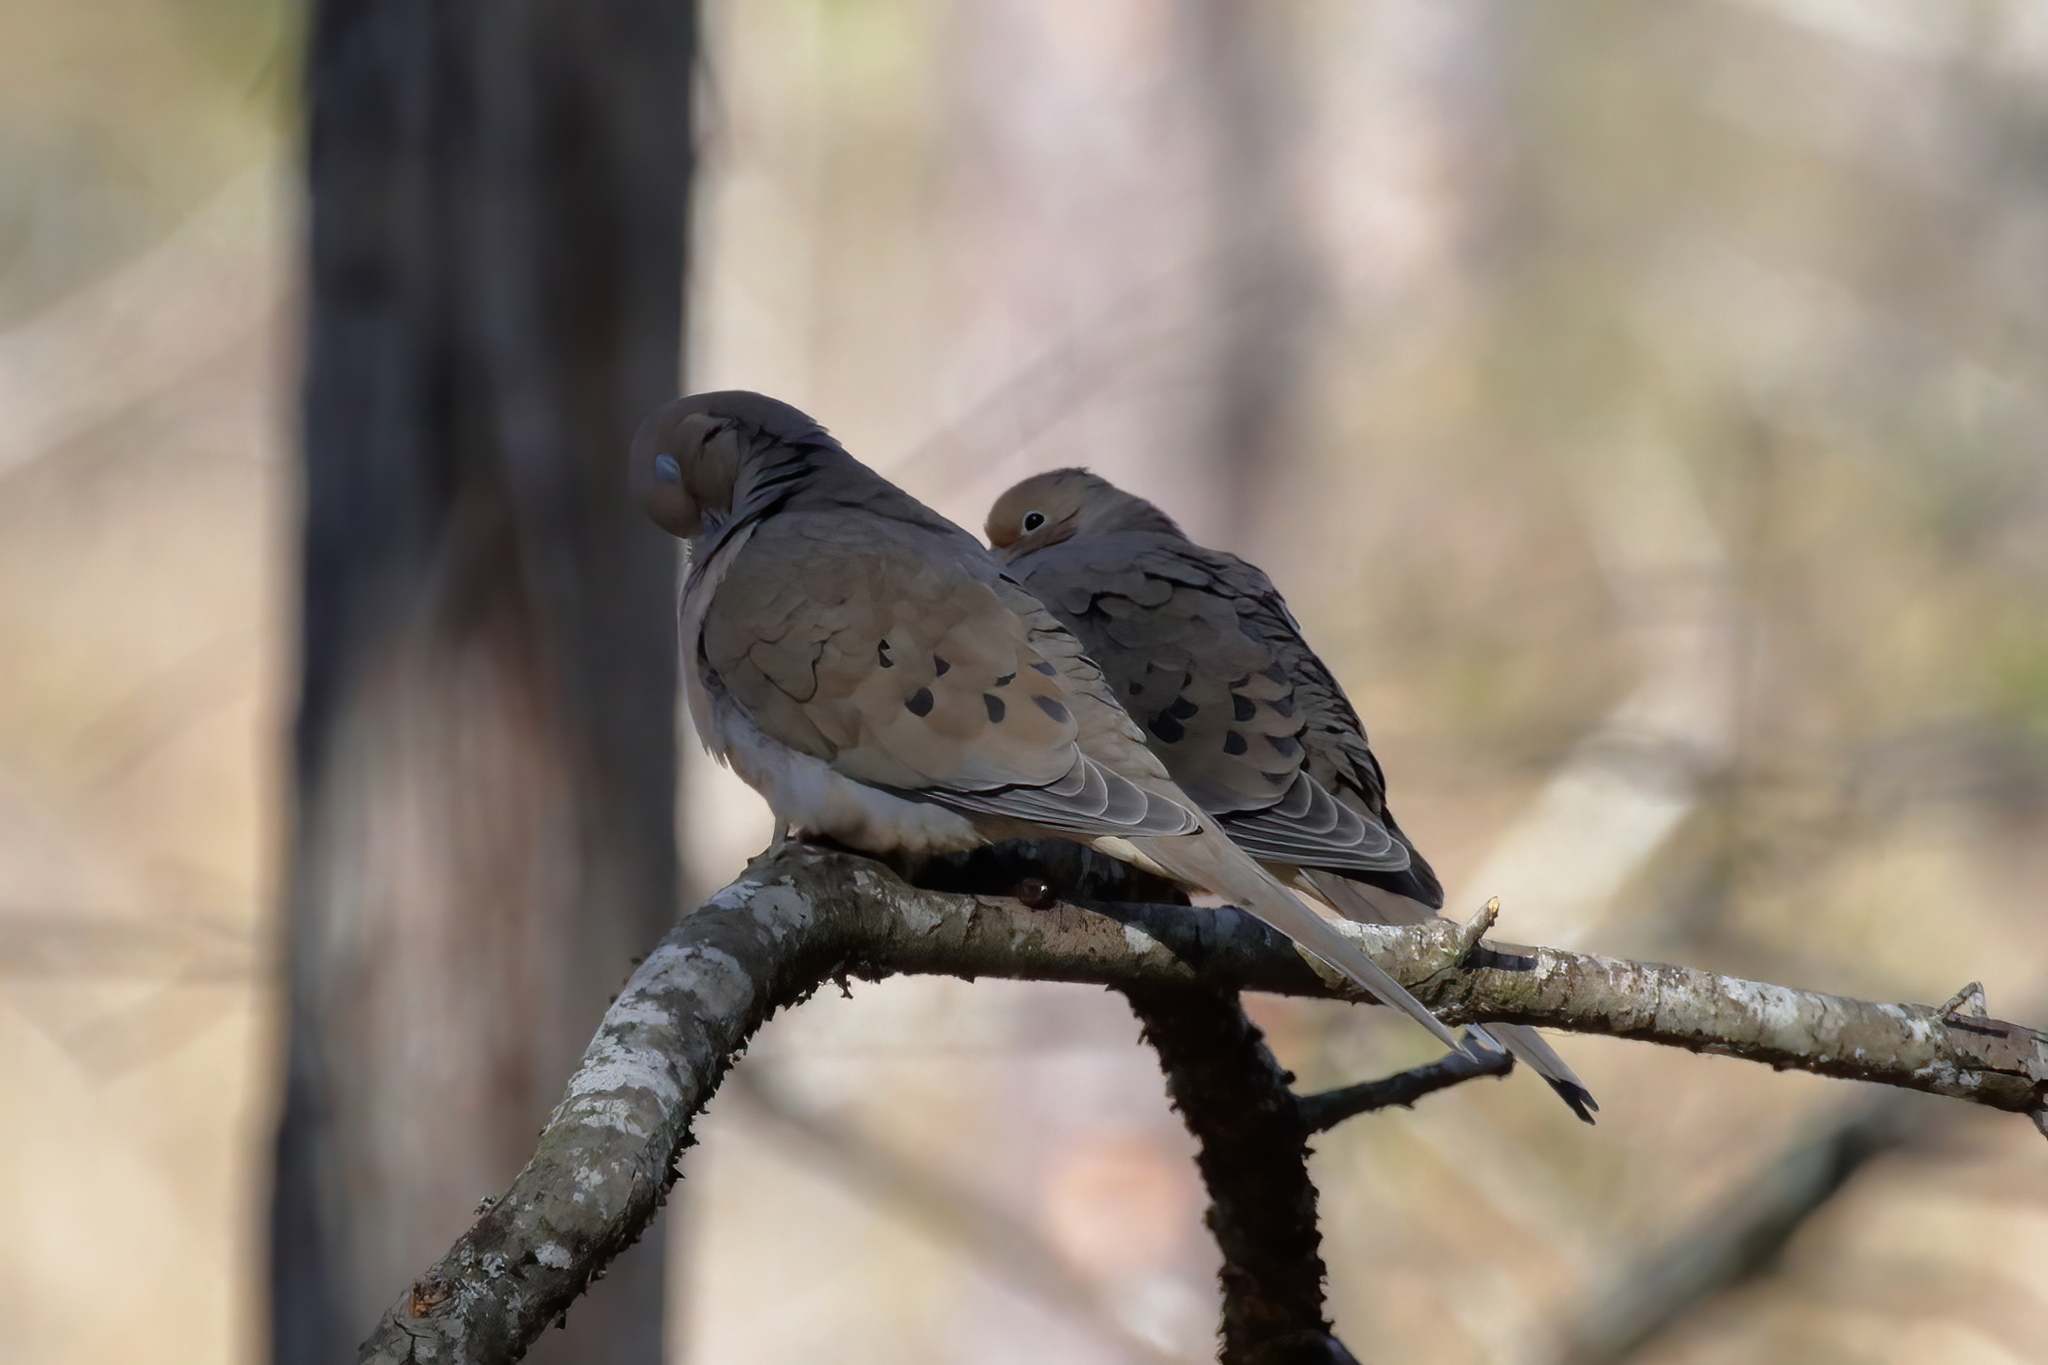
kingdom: Animalia
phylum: Chordata
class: Aves
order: Columbiformes
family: Columbidae
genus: Zenaida
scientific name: Zenaida macroura
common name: Mourning dove
